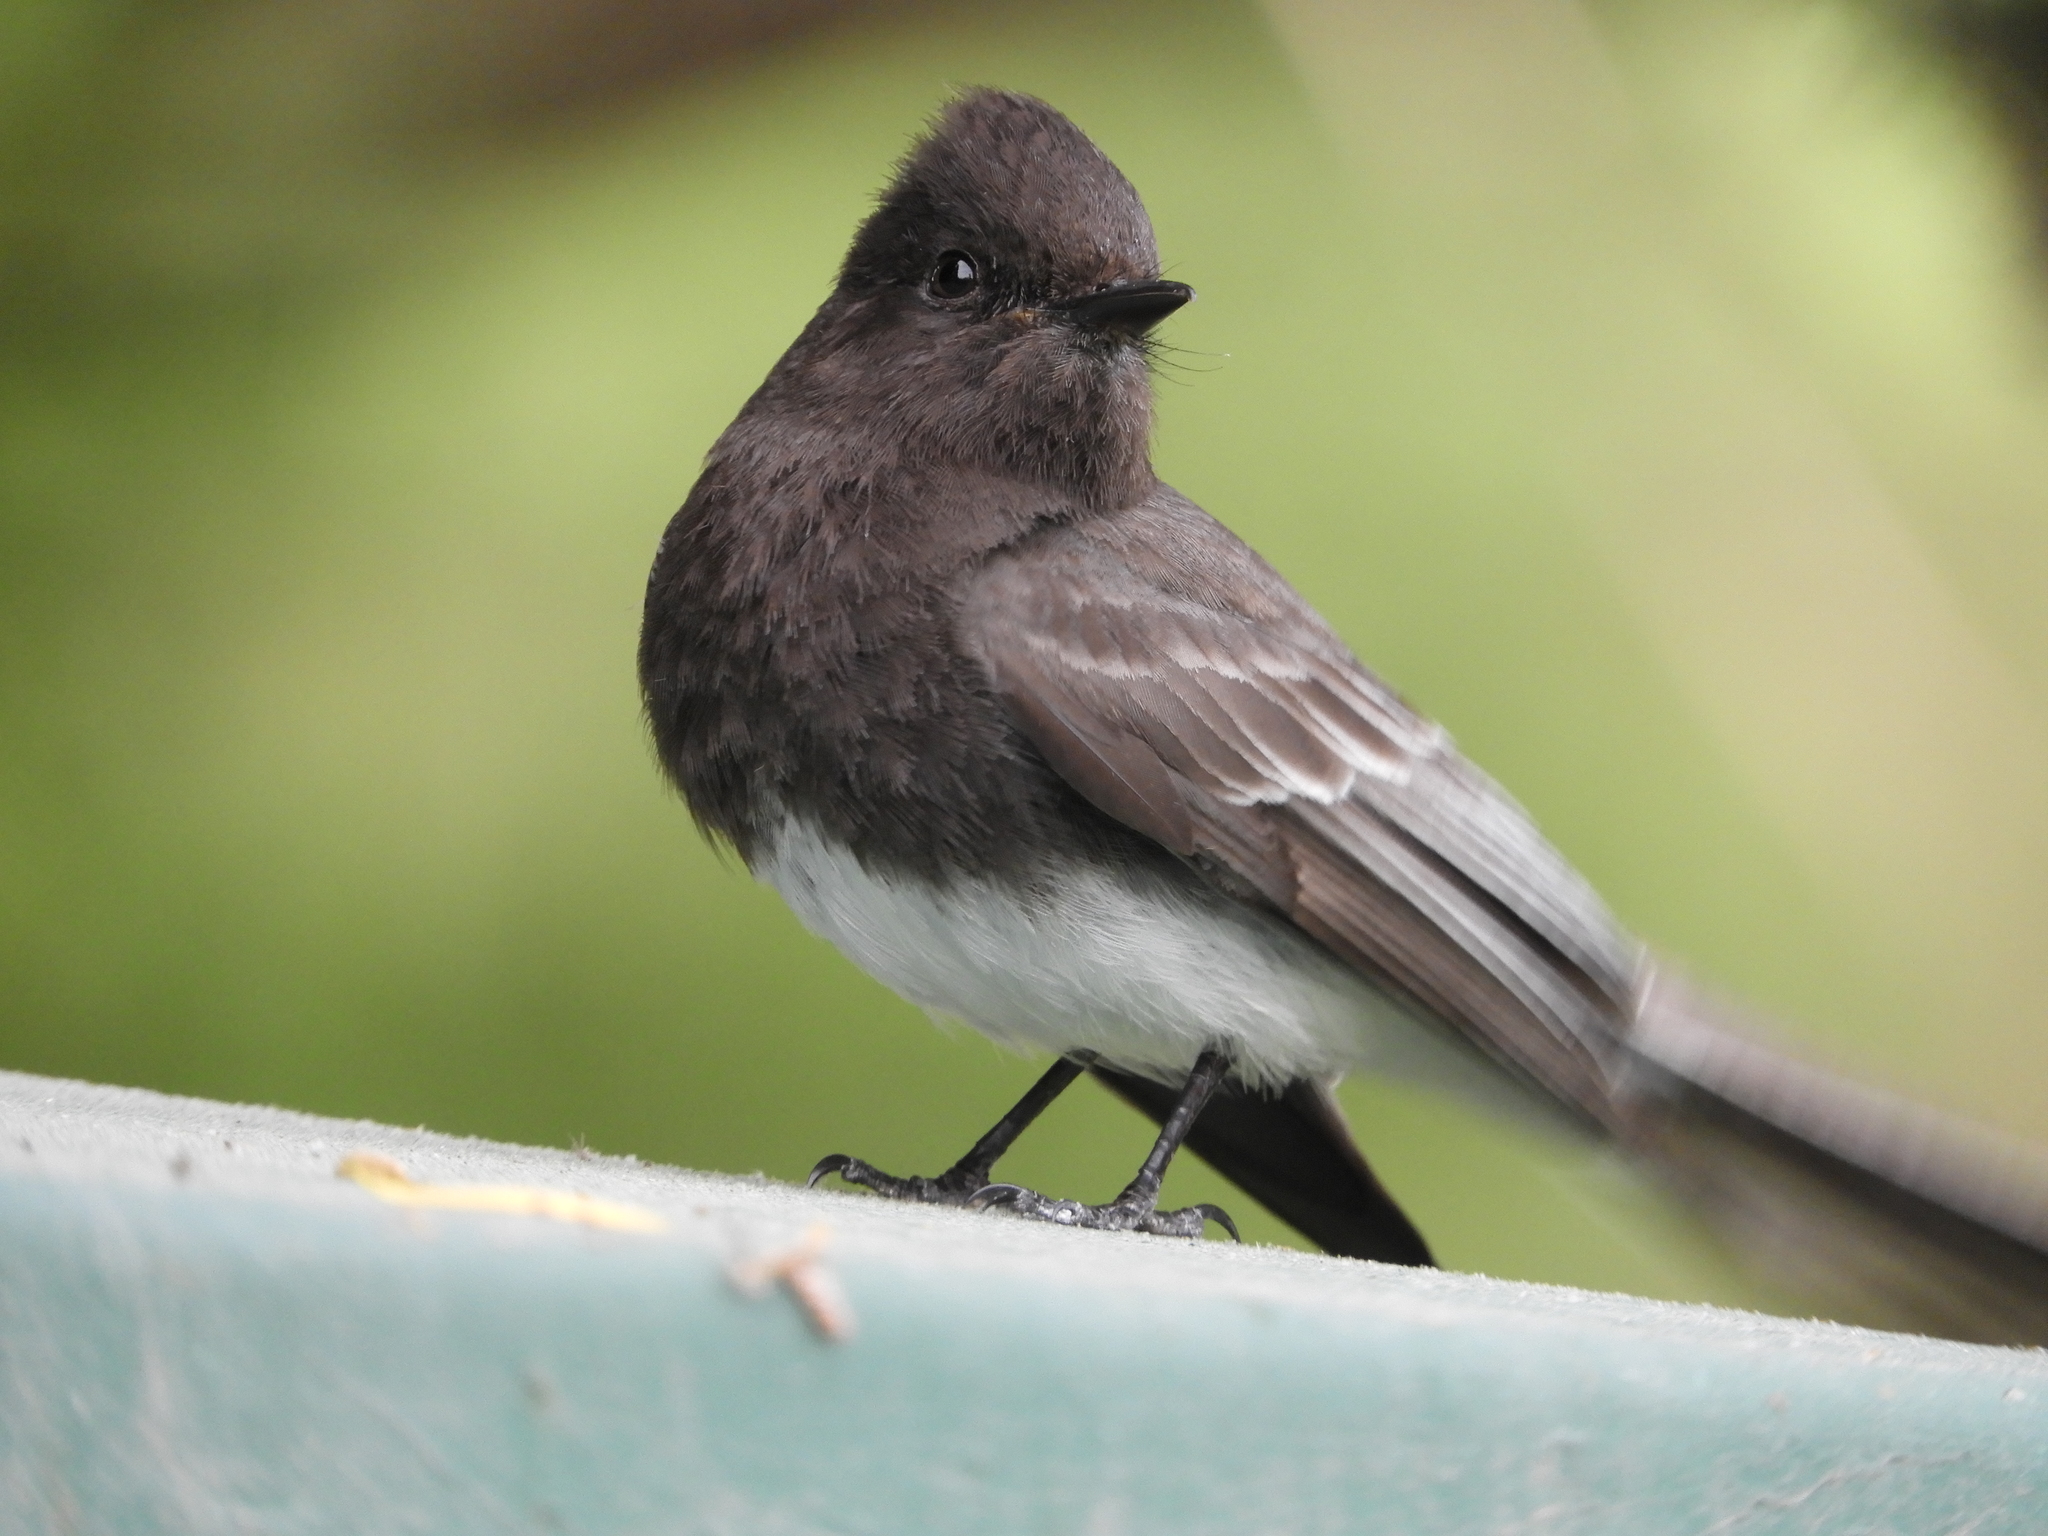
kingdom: Animalia
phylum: Chordata
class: Aves
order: Passeriformes
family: Tyrannidae
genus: Sayornis
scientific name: Sayornis nigricans
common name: Black phoebe
